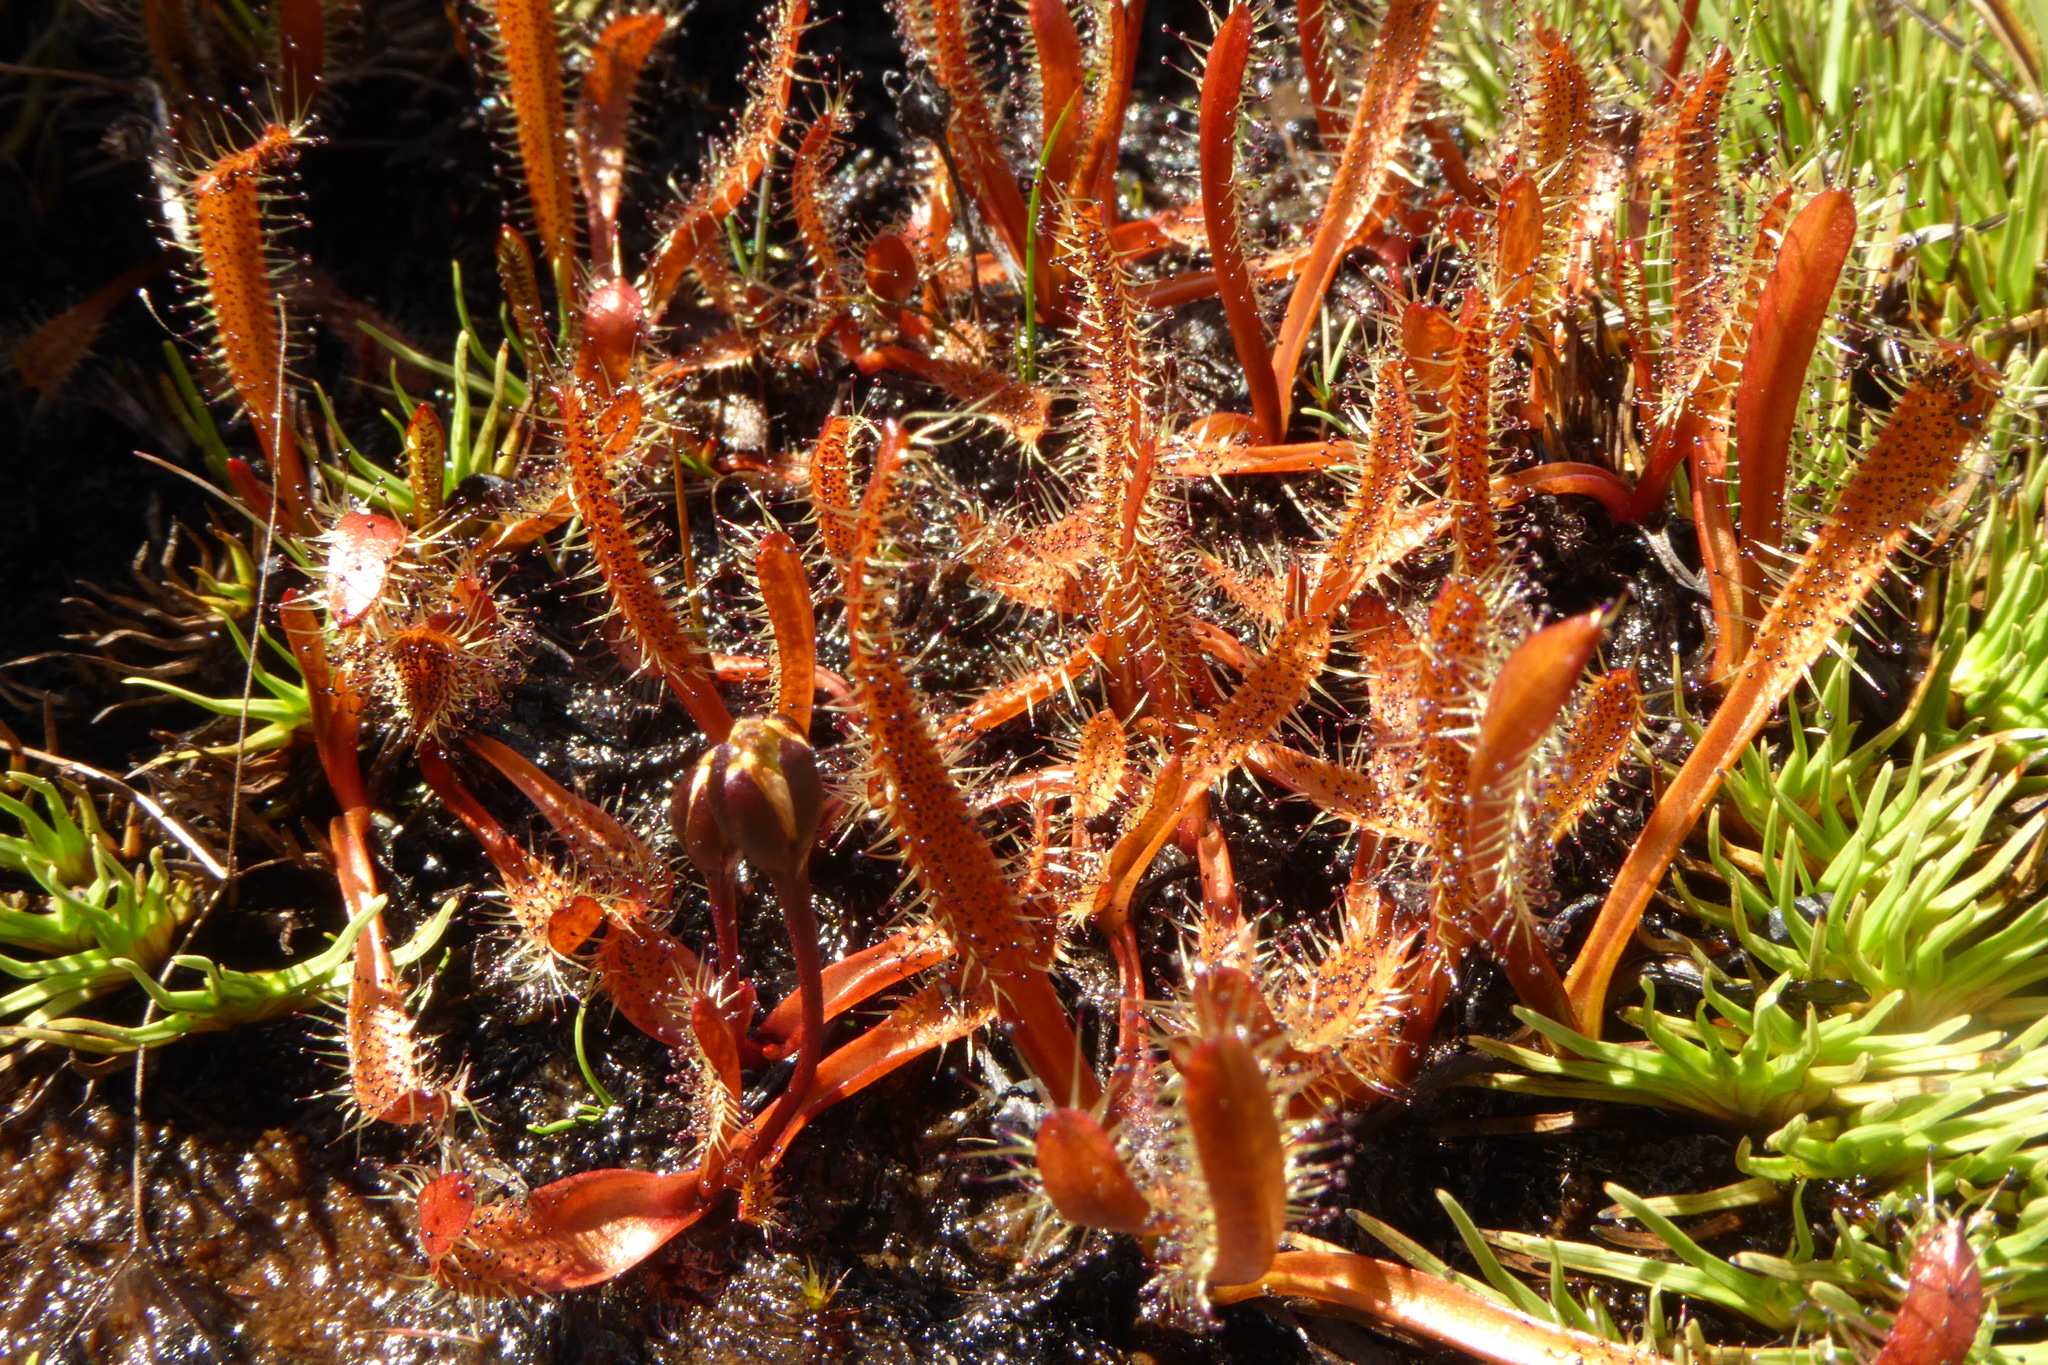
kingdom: Plantae
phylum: Tracheophyta
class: Magnoliopsida
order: Caryophyllales
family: Droseraceae
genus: Drosera
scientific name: Drosera arcturi
